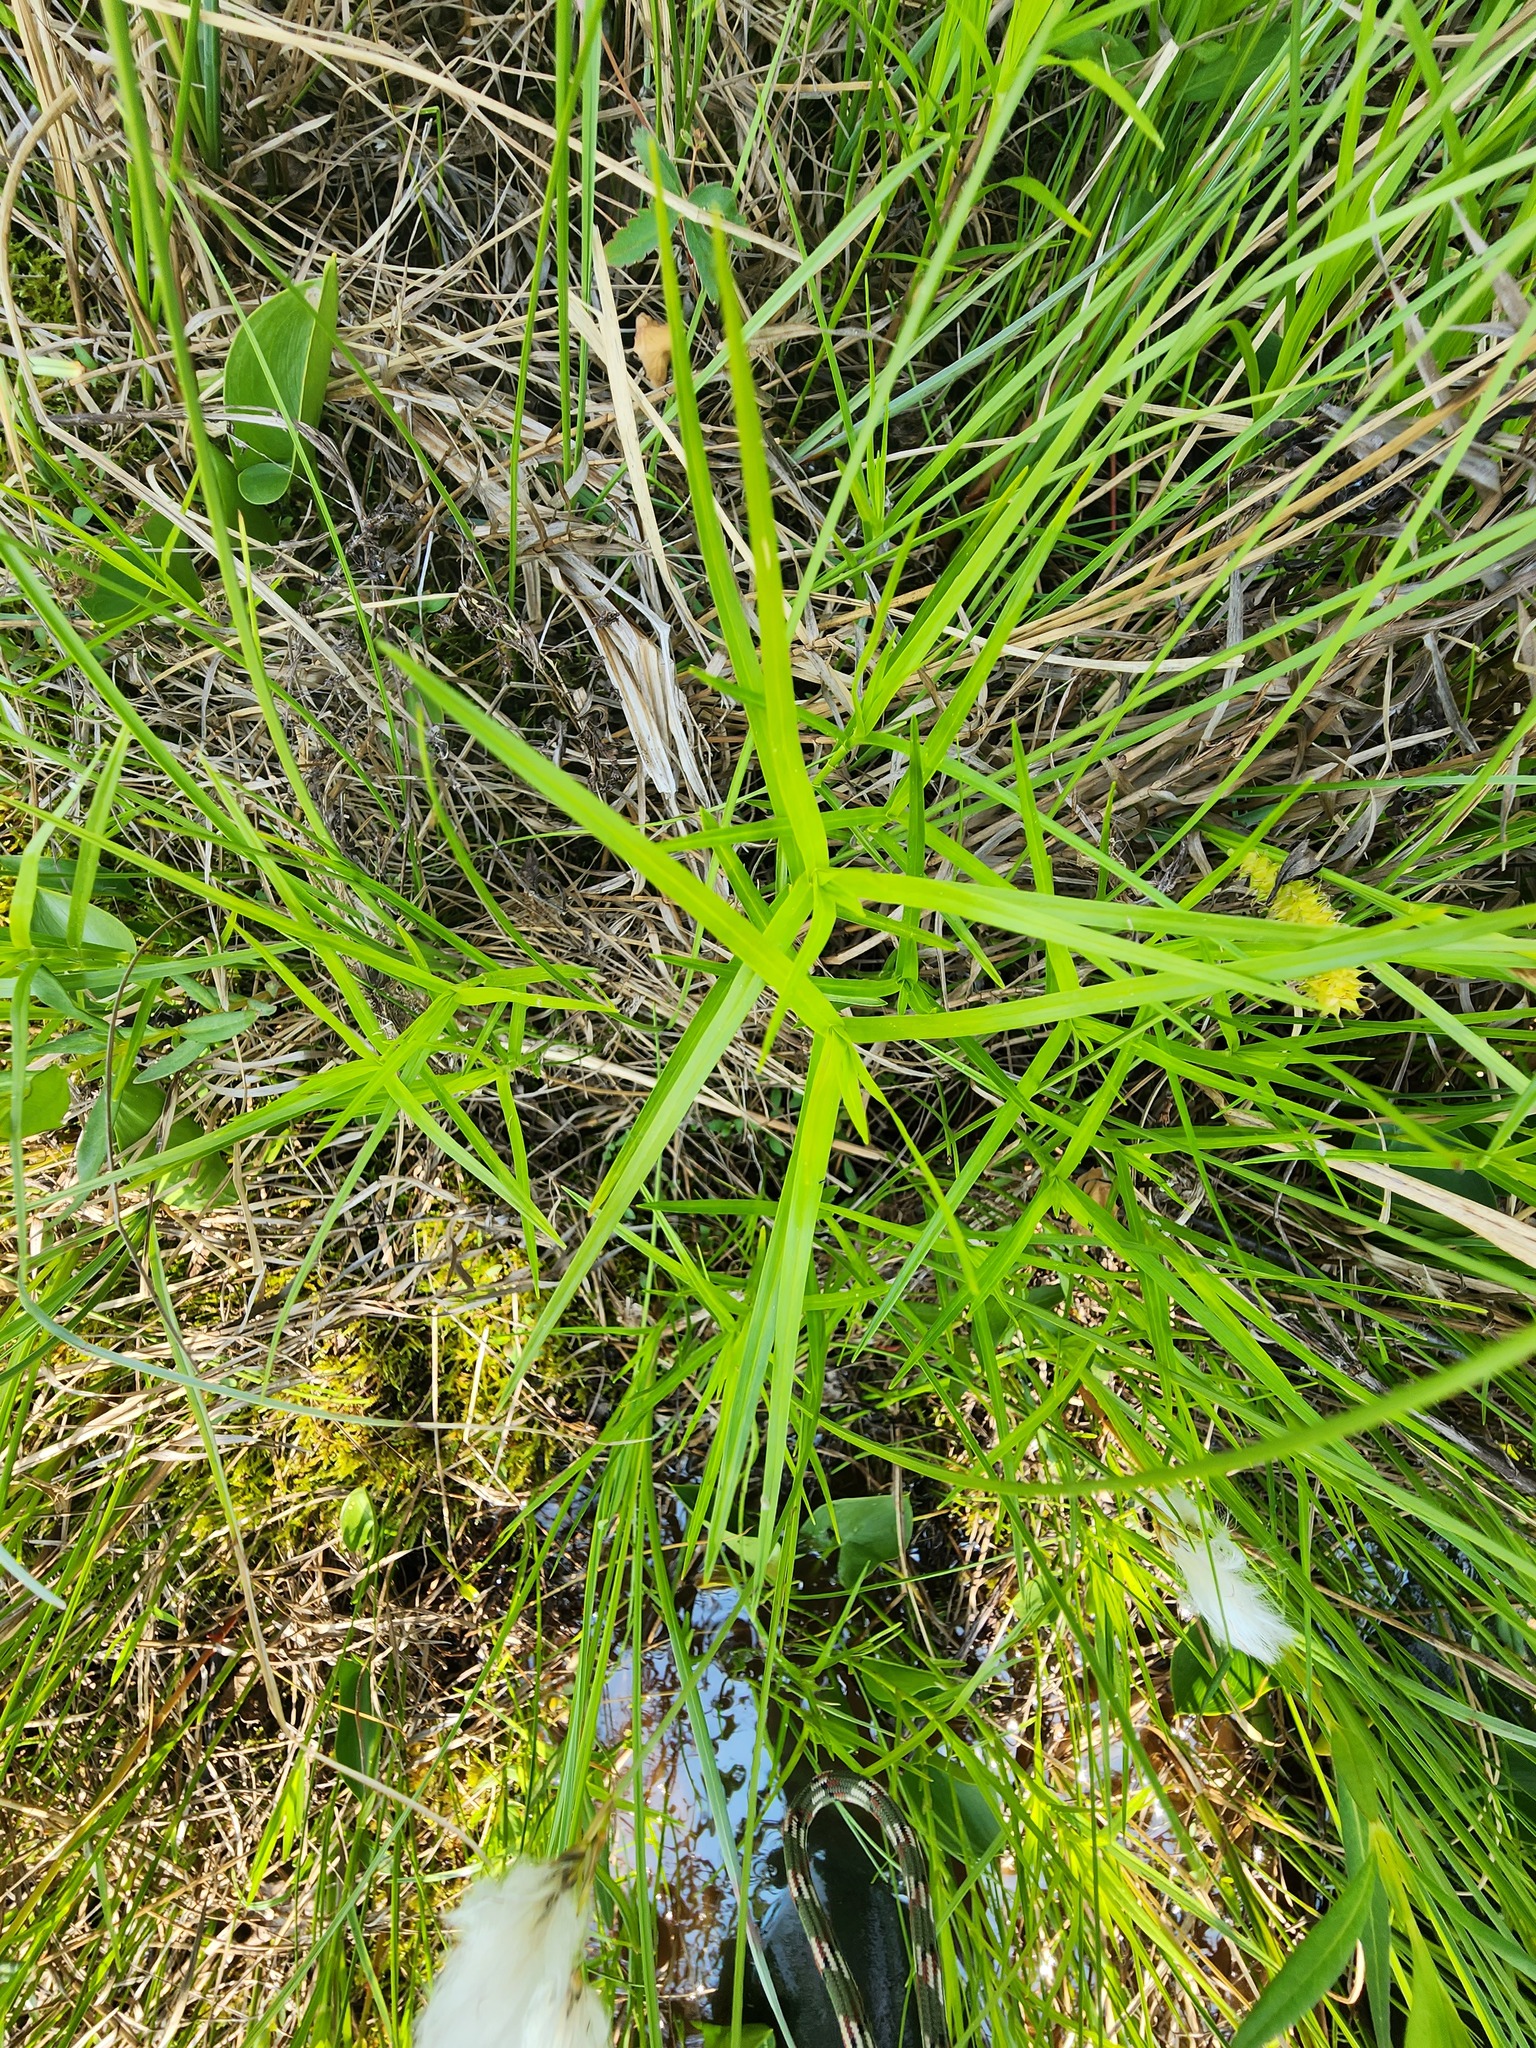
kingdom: Plantae
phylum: Tracheophyta
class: Liliopsida
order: Poales
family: Cyperaceae
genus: Dulichium
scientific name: Dulichium arundinaceum
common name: Three-way sedge
